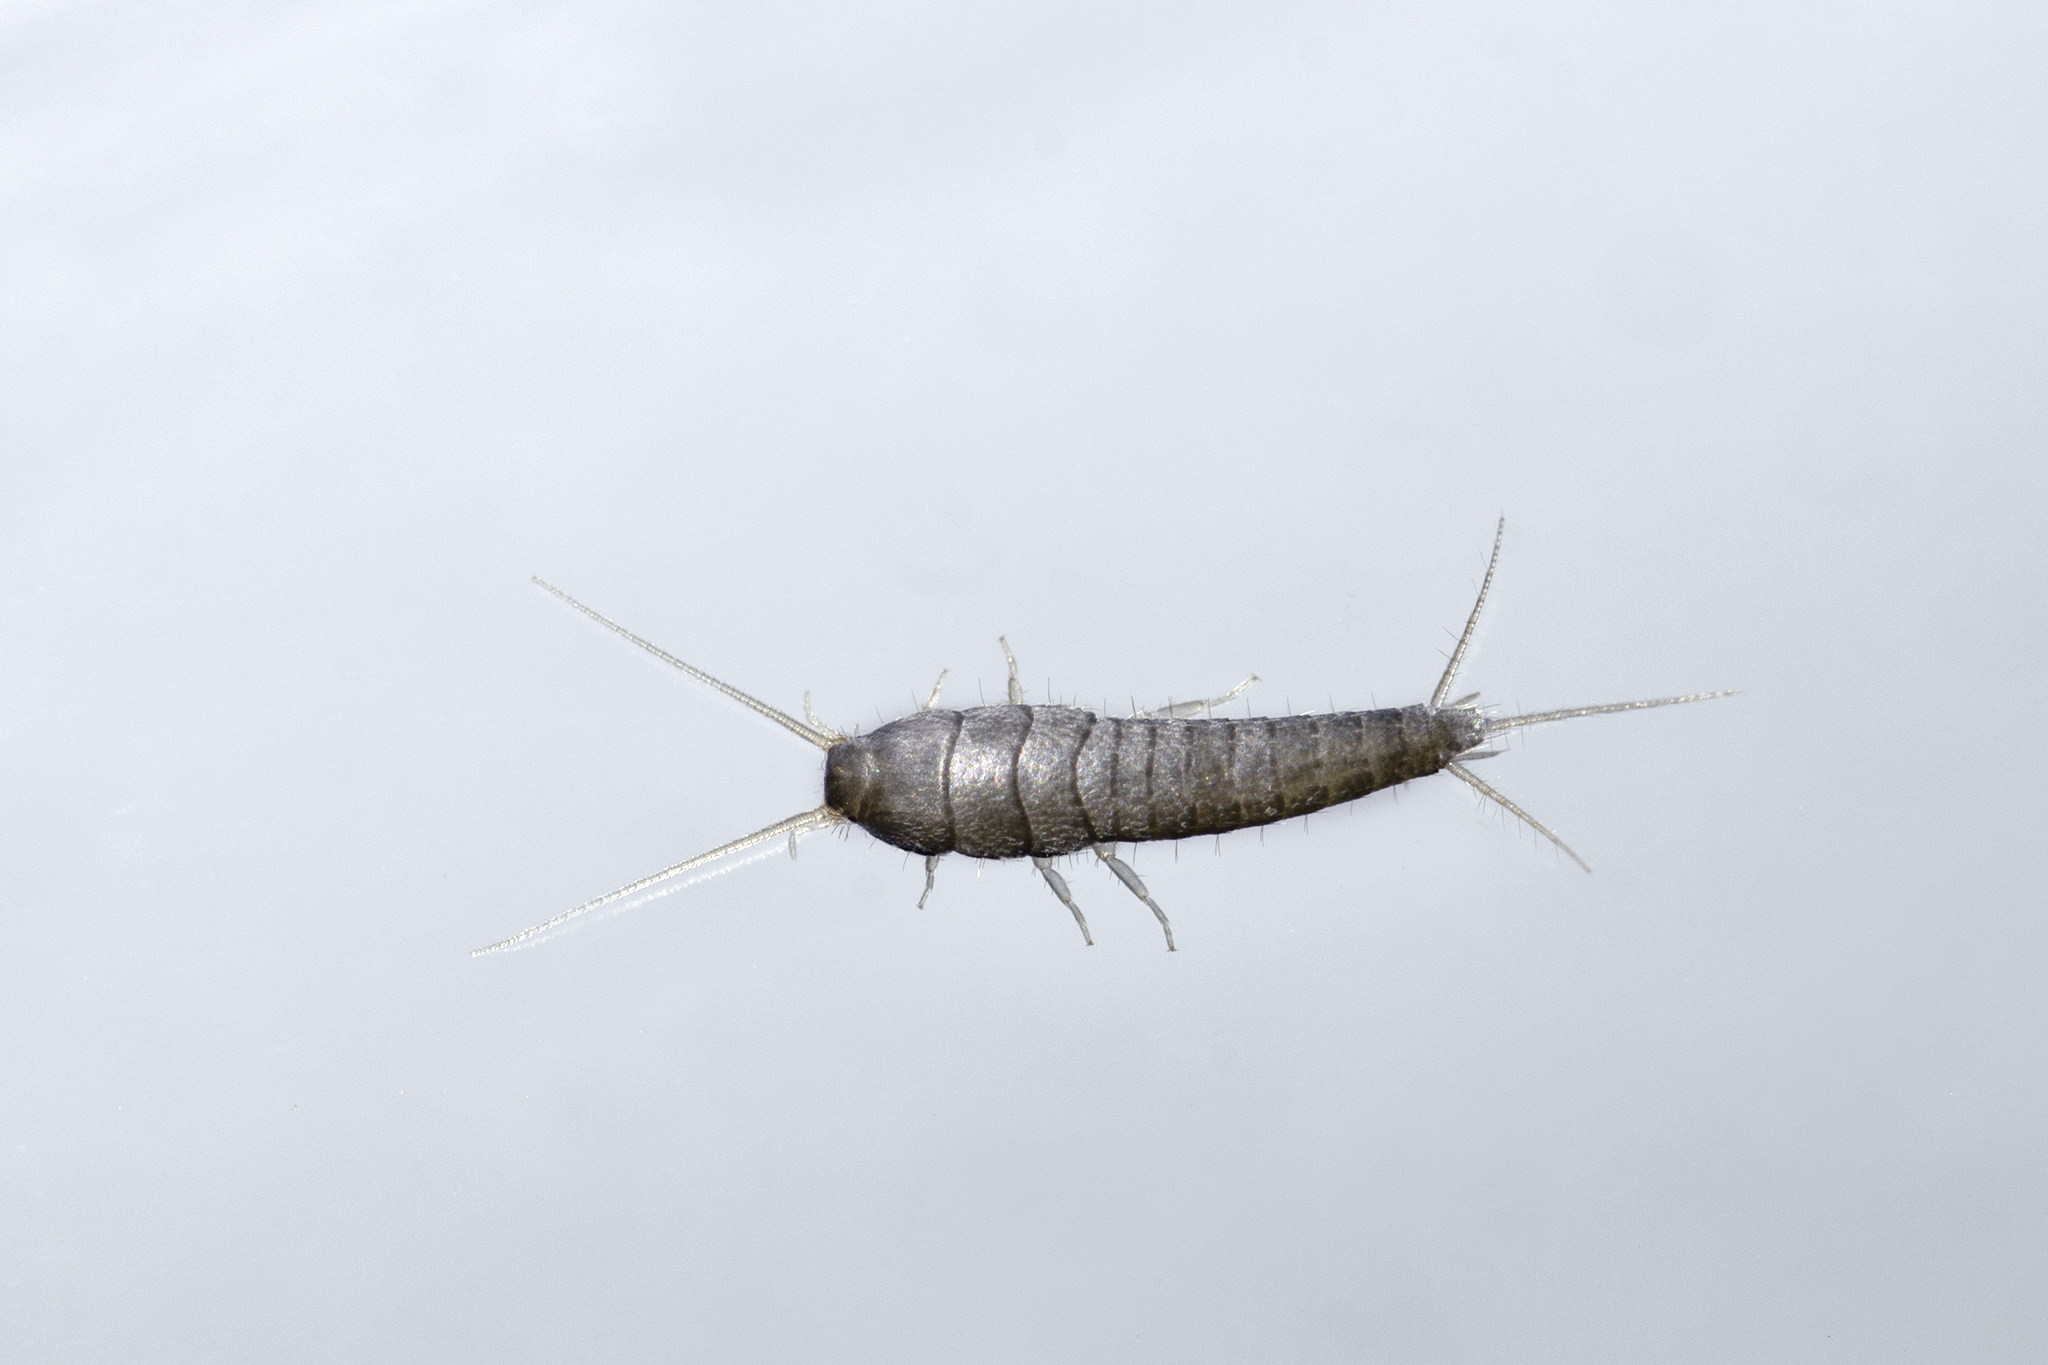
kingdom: Animalia
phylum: Arthropoda
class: Insecta
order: Zygentoma
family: Lepismatidae
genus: Lepisma
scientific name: Lepisma saccharinum
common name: Silverfish
